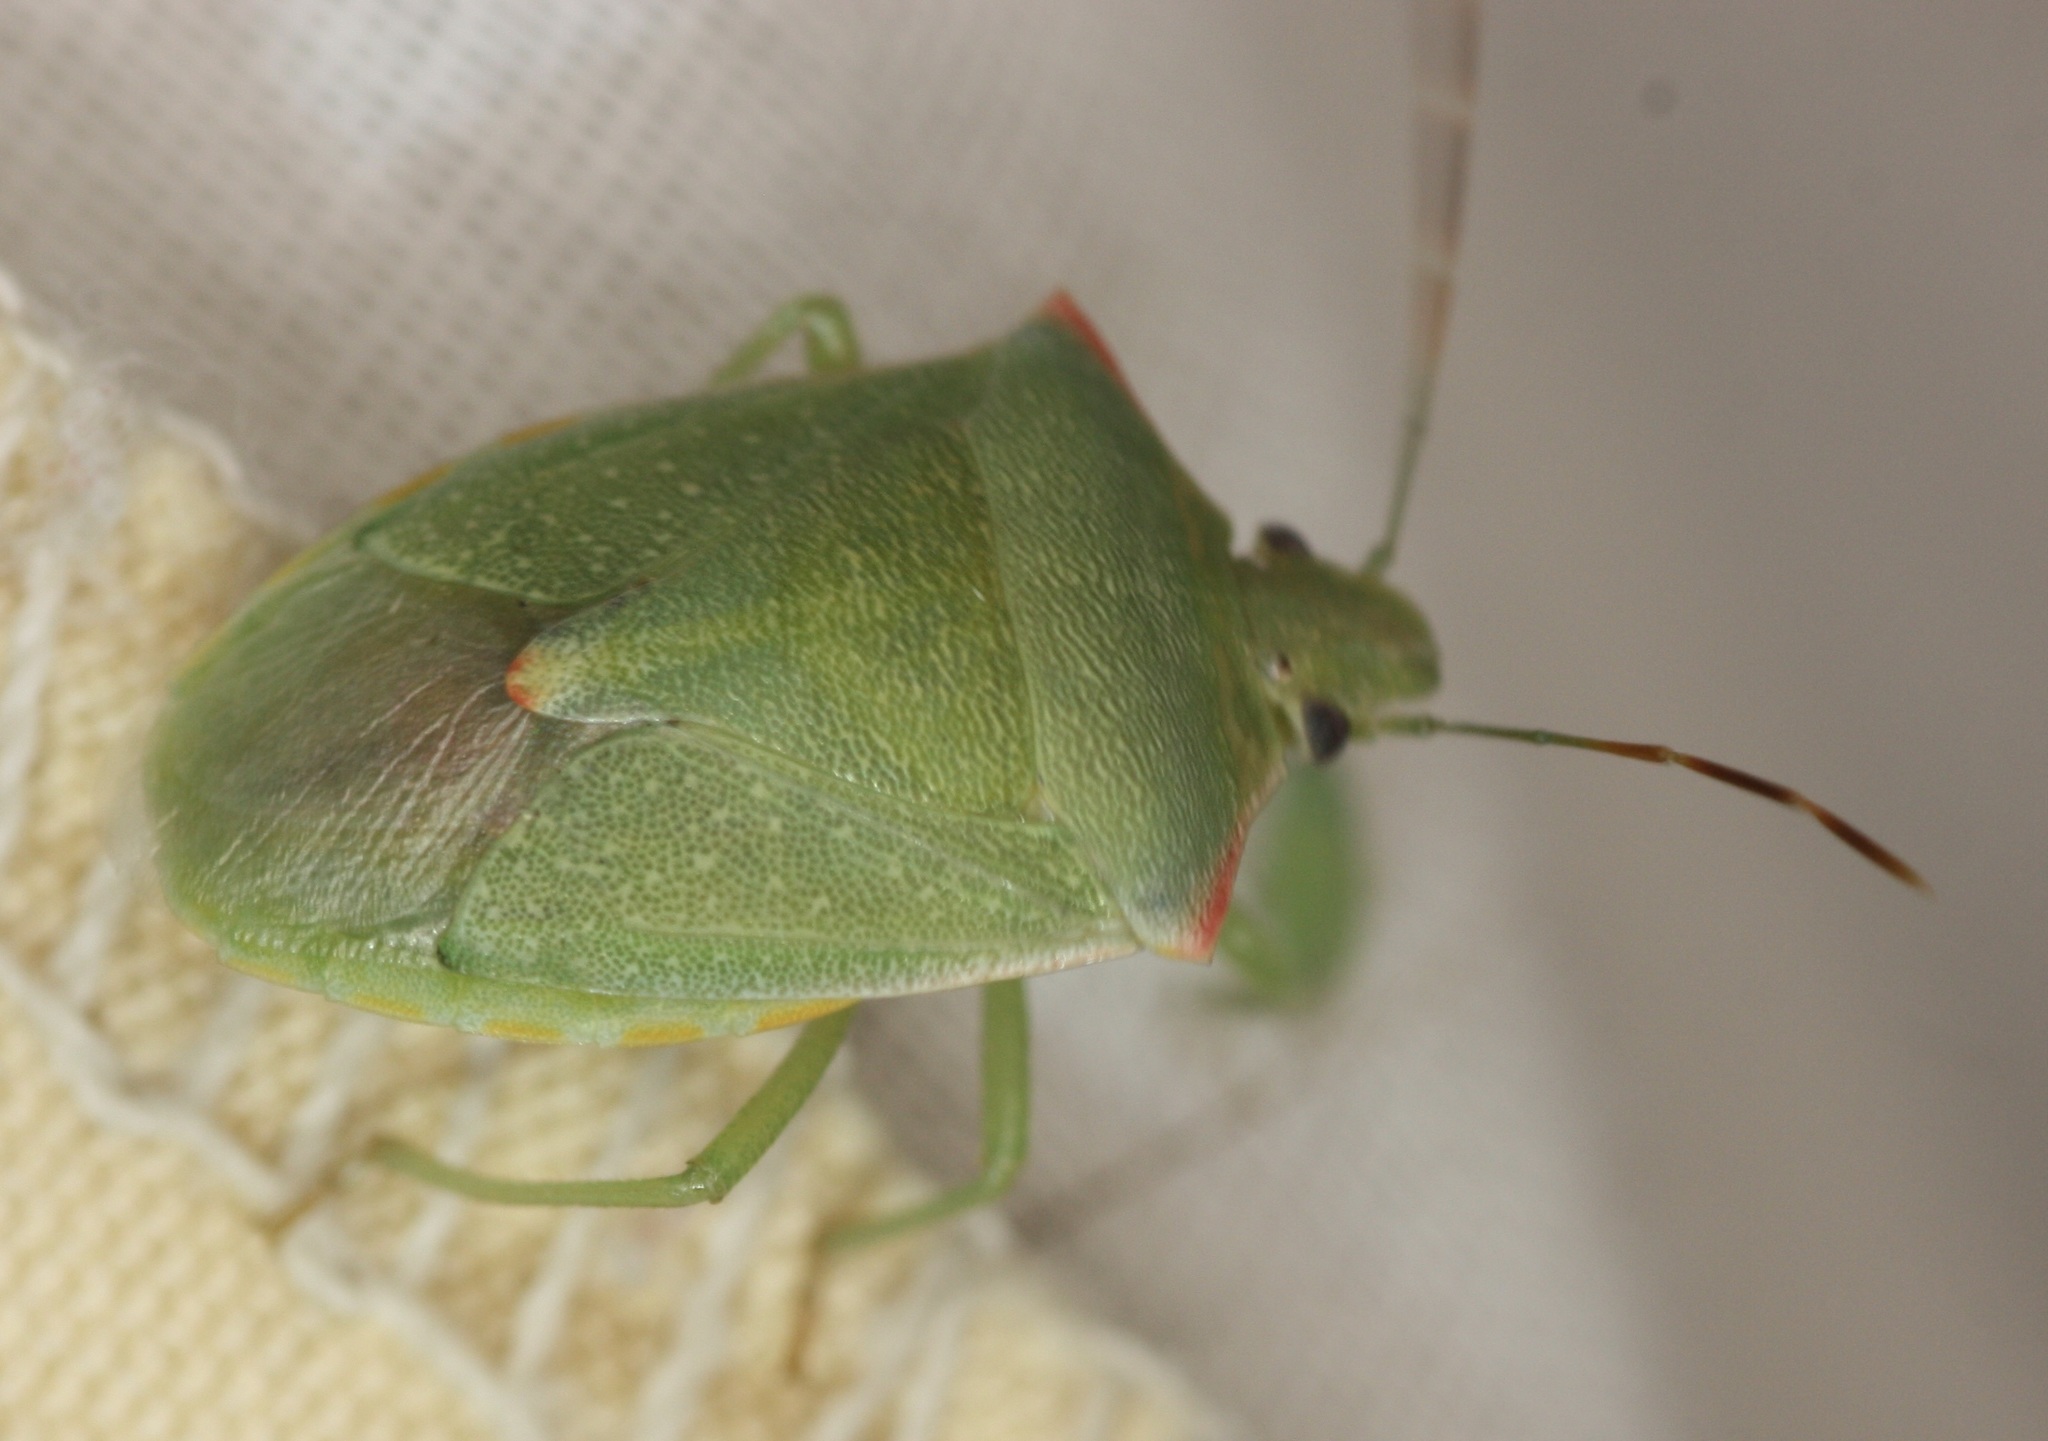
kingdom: Animalia
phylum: Arthropoda
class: Insecta
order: Hemiptera
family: Pentatomidae
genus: Thyanta
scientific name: Thyanta accerra
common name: Stink bug
